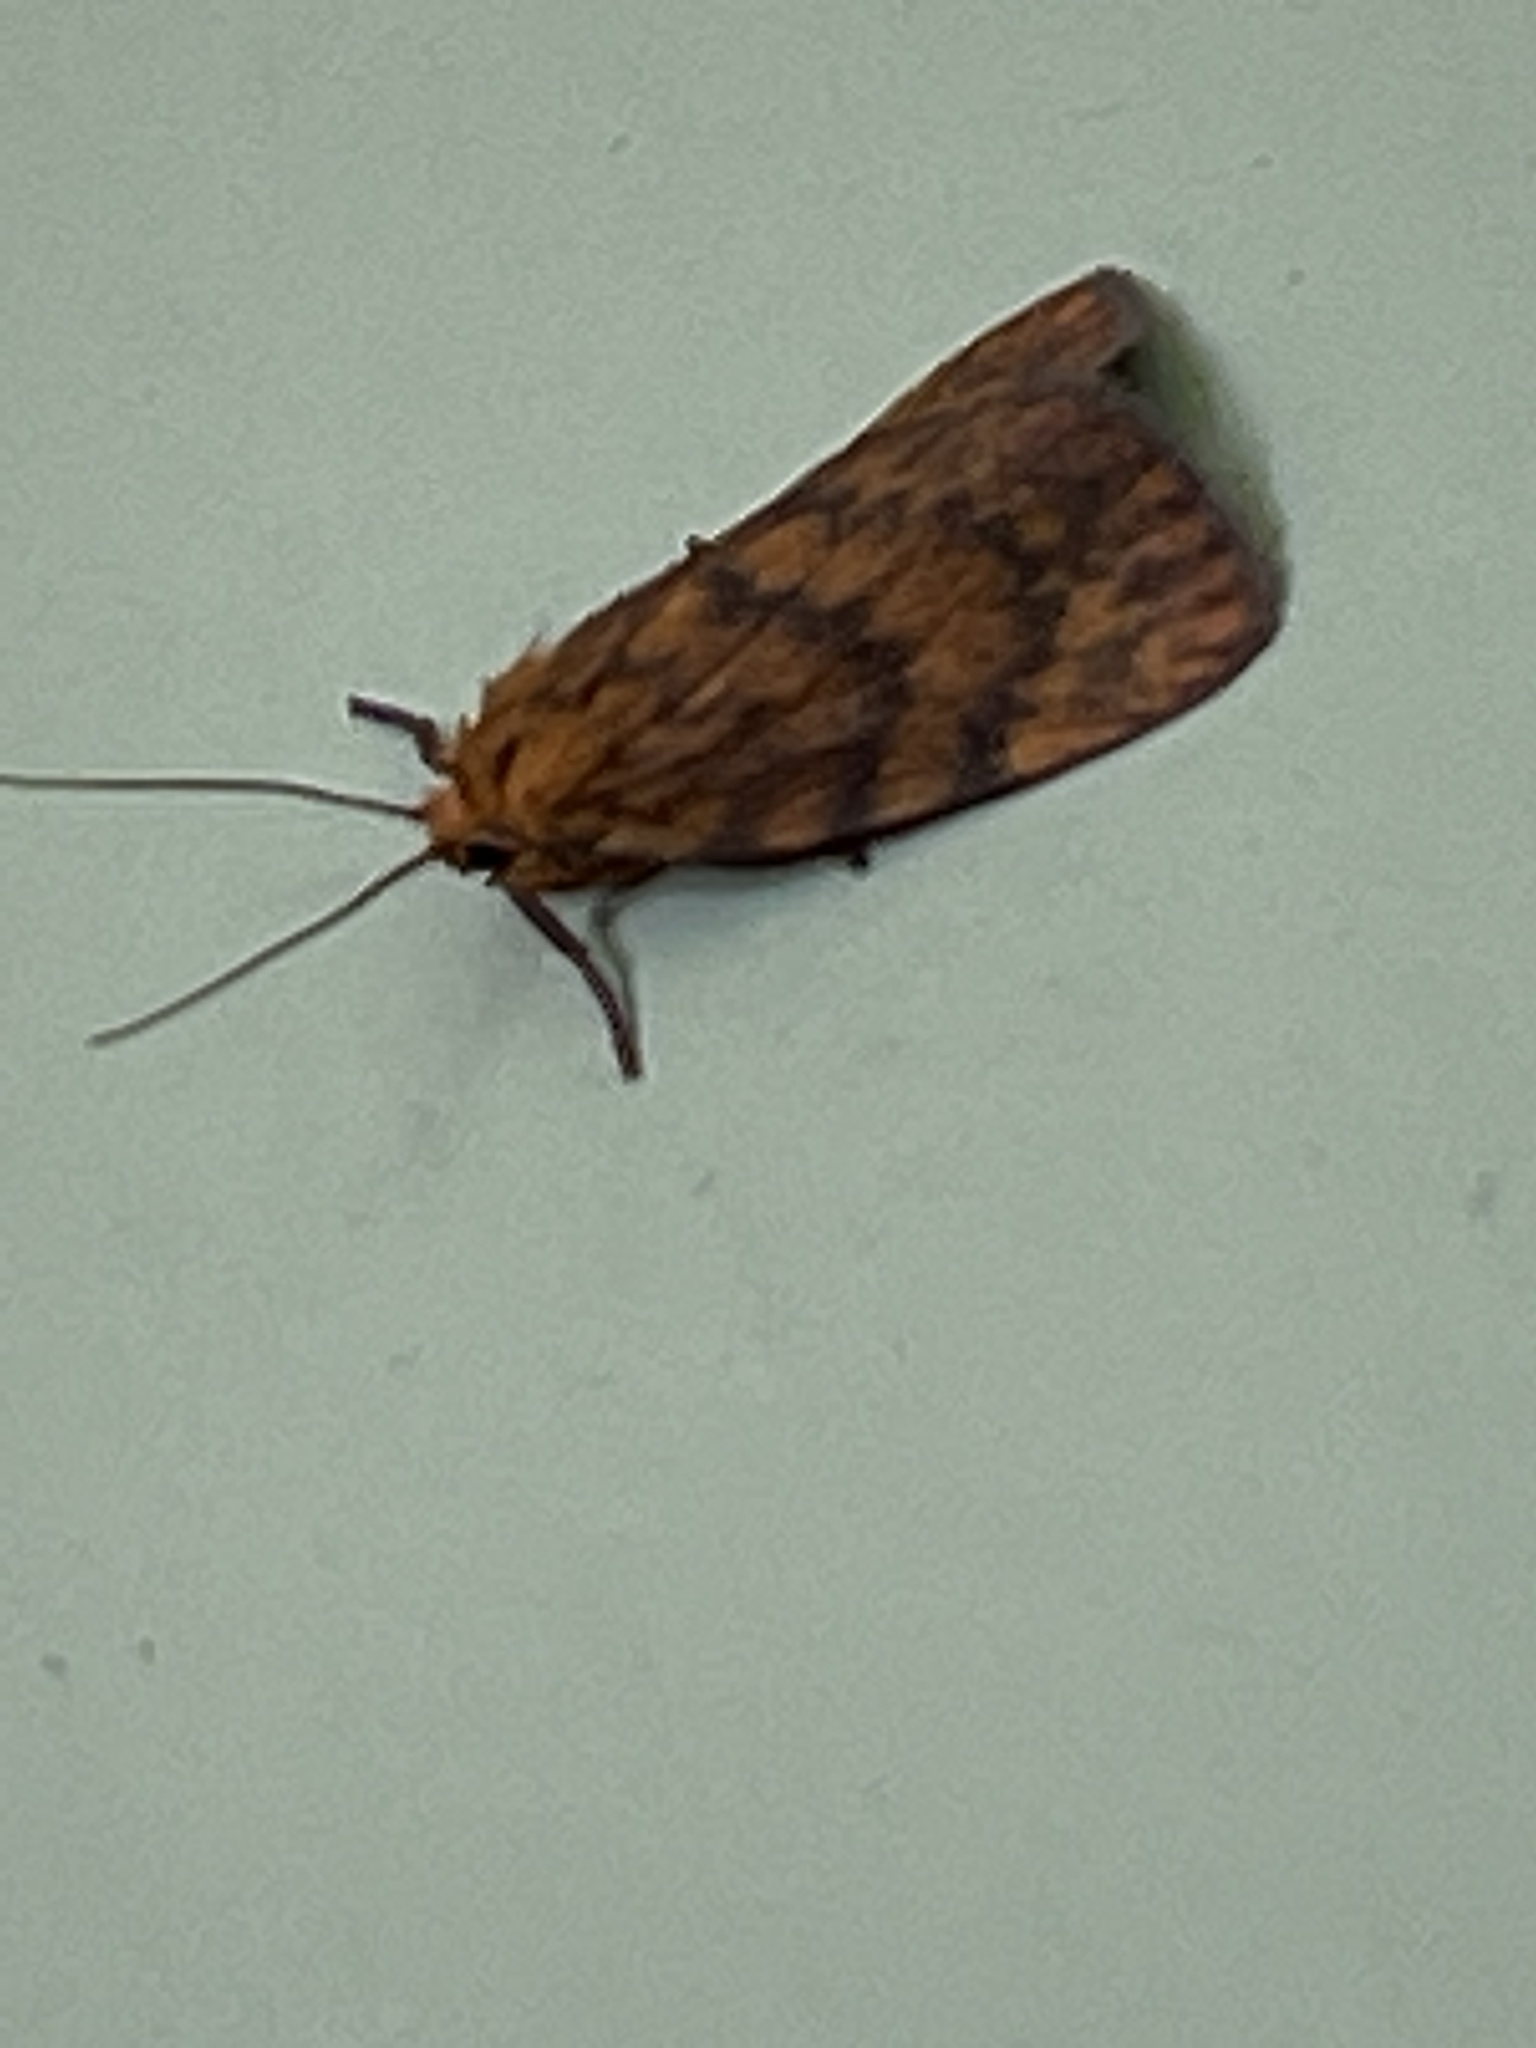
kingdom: Animalia
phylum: Arthropoda
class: Insecta
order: Lepidoptera
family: Erebidae
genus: Cyme
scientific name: Cyme structa
